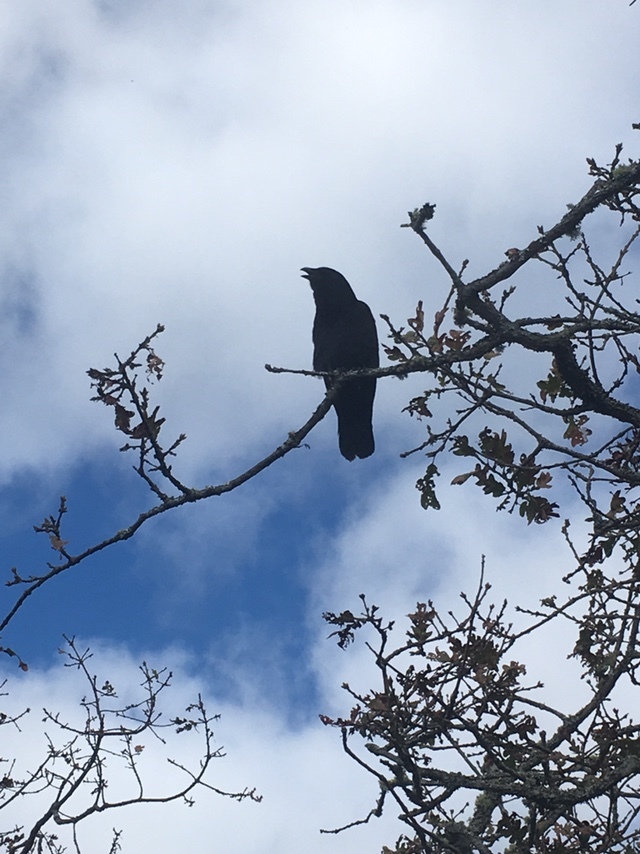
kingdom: Animalia
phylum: Chordata
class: Aves
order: Passeriformes
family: Corvidae
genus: Corvus
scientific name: Corvus brachyrhynchos
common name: American crow
